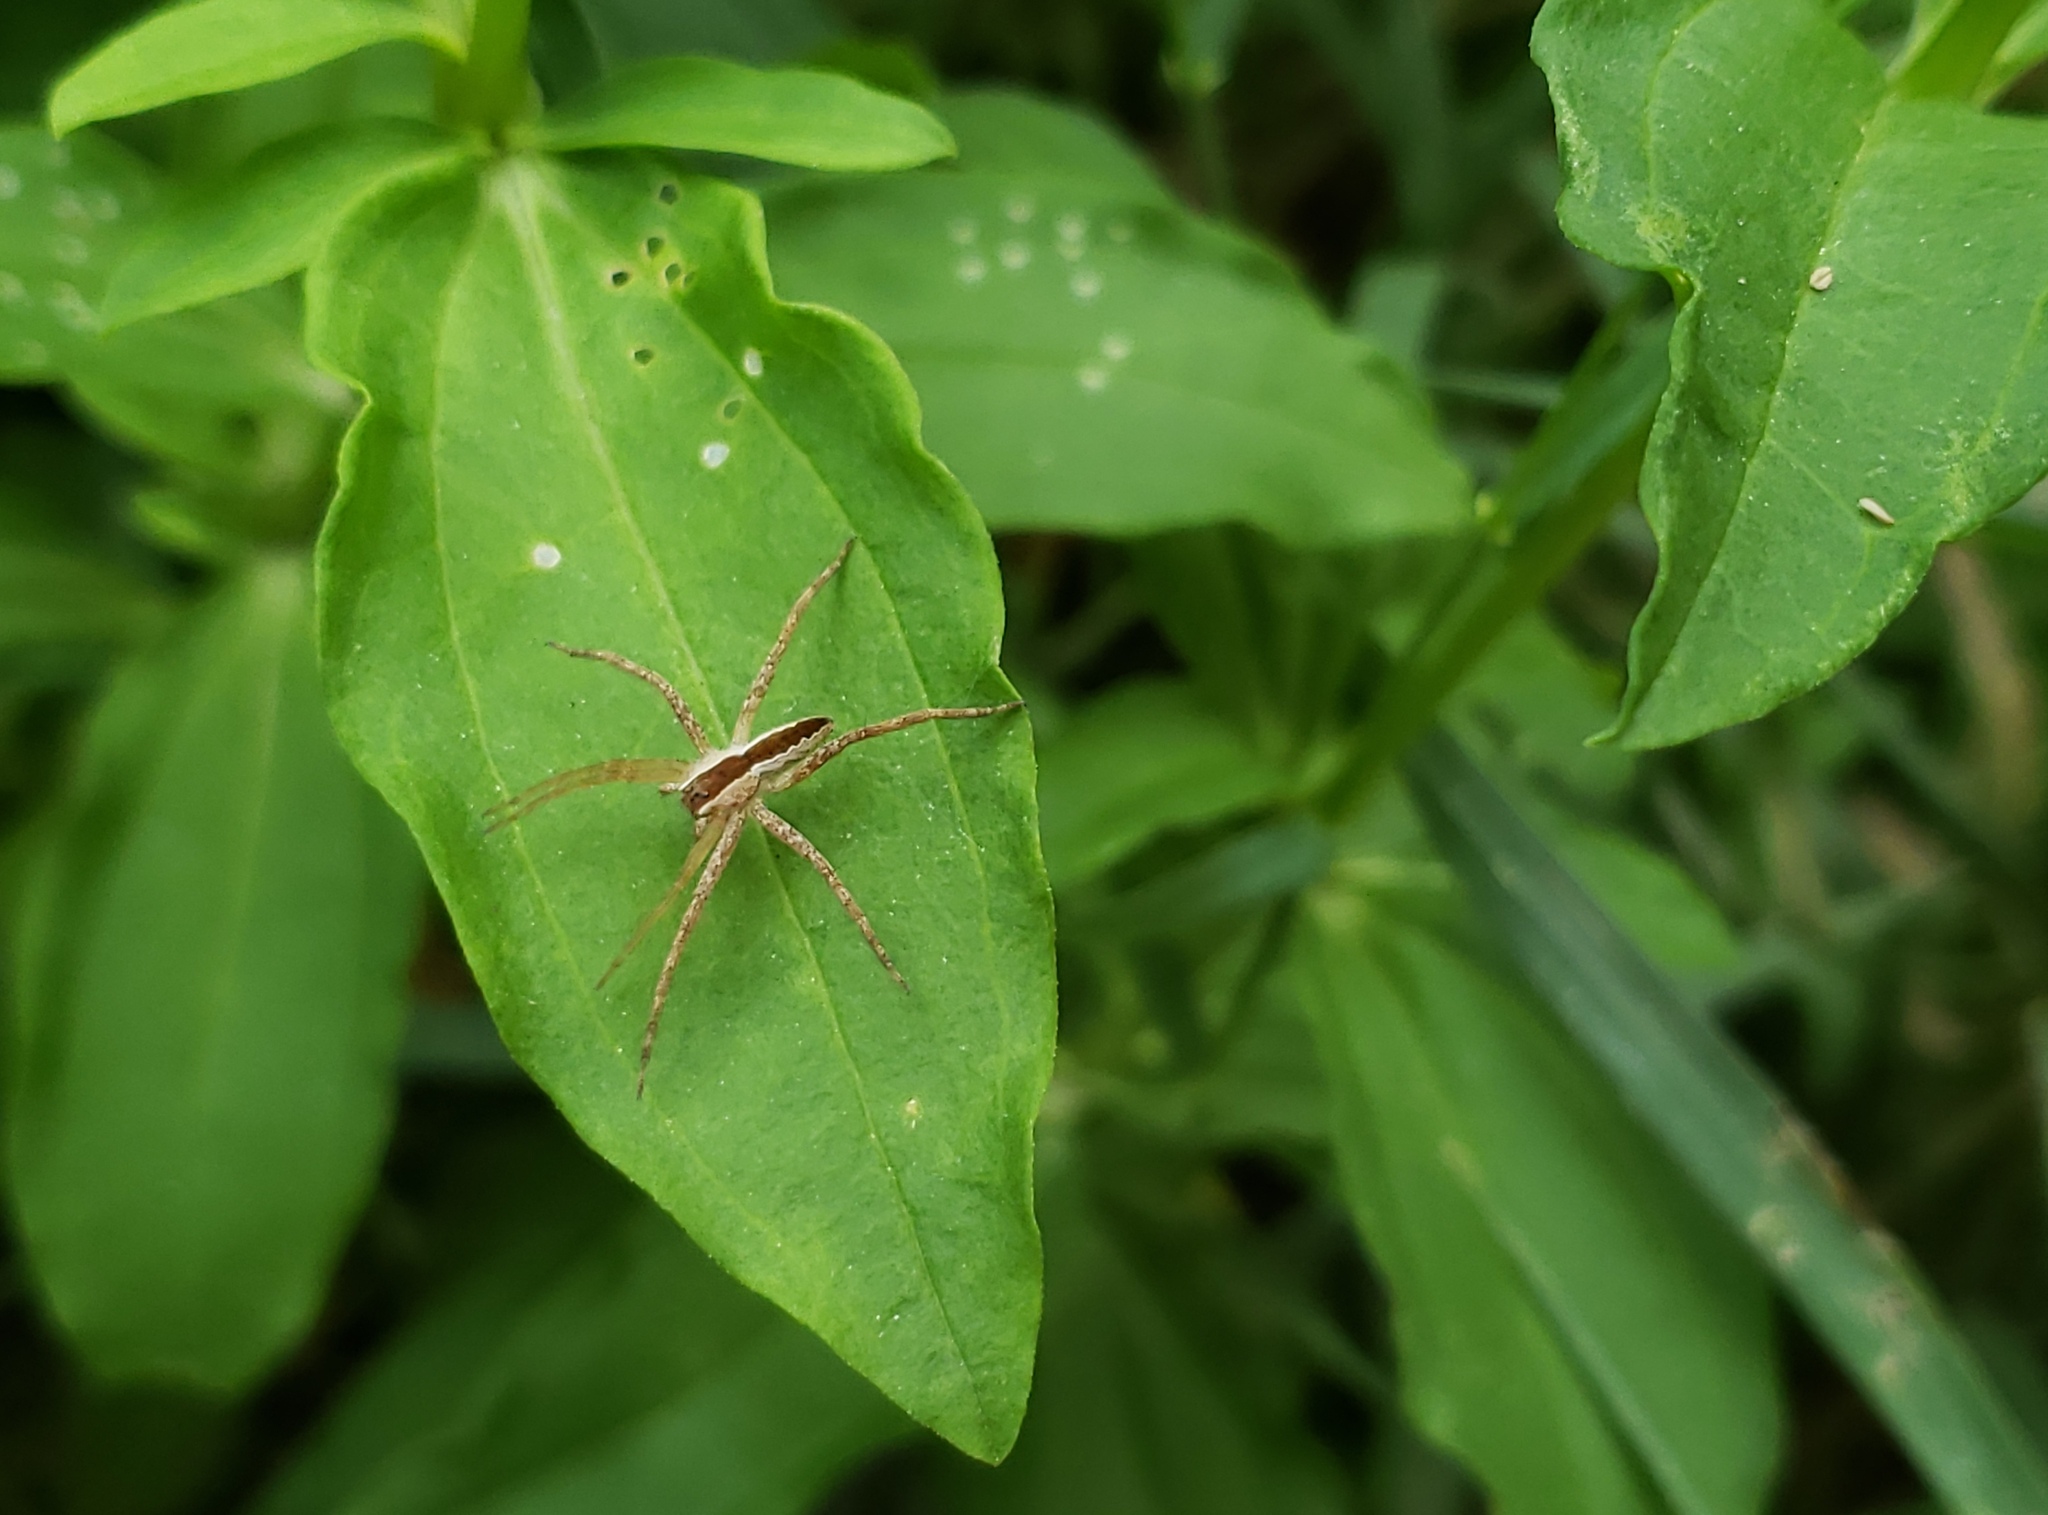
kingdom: Animalia
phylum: Arthropoda
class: Arachnida
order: Araneae
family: Pisauridae
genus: Pisaurina
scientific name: Pisaurina mira
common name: American nursery web spider
